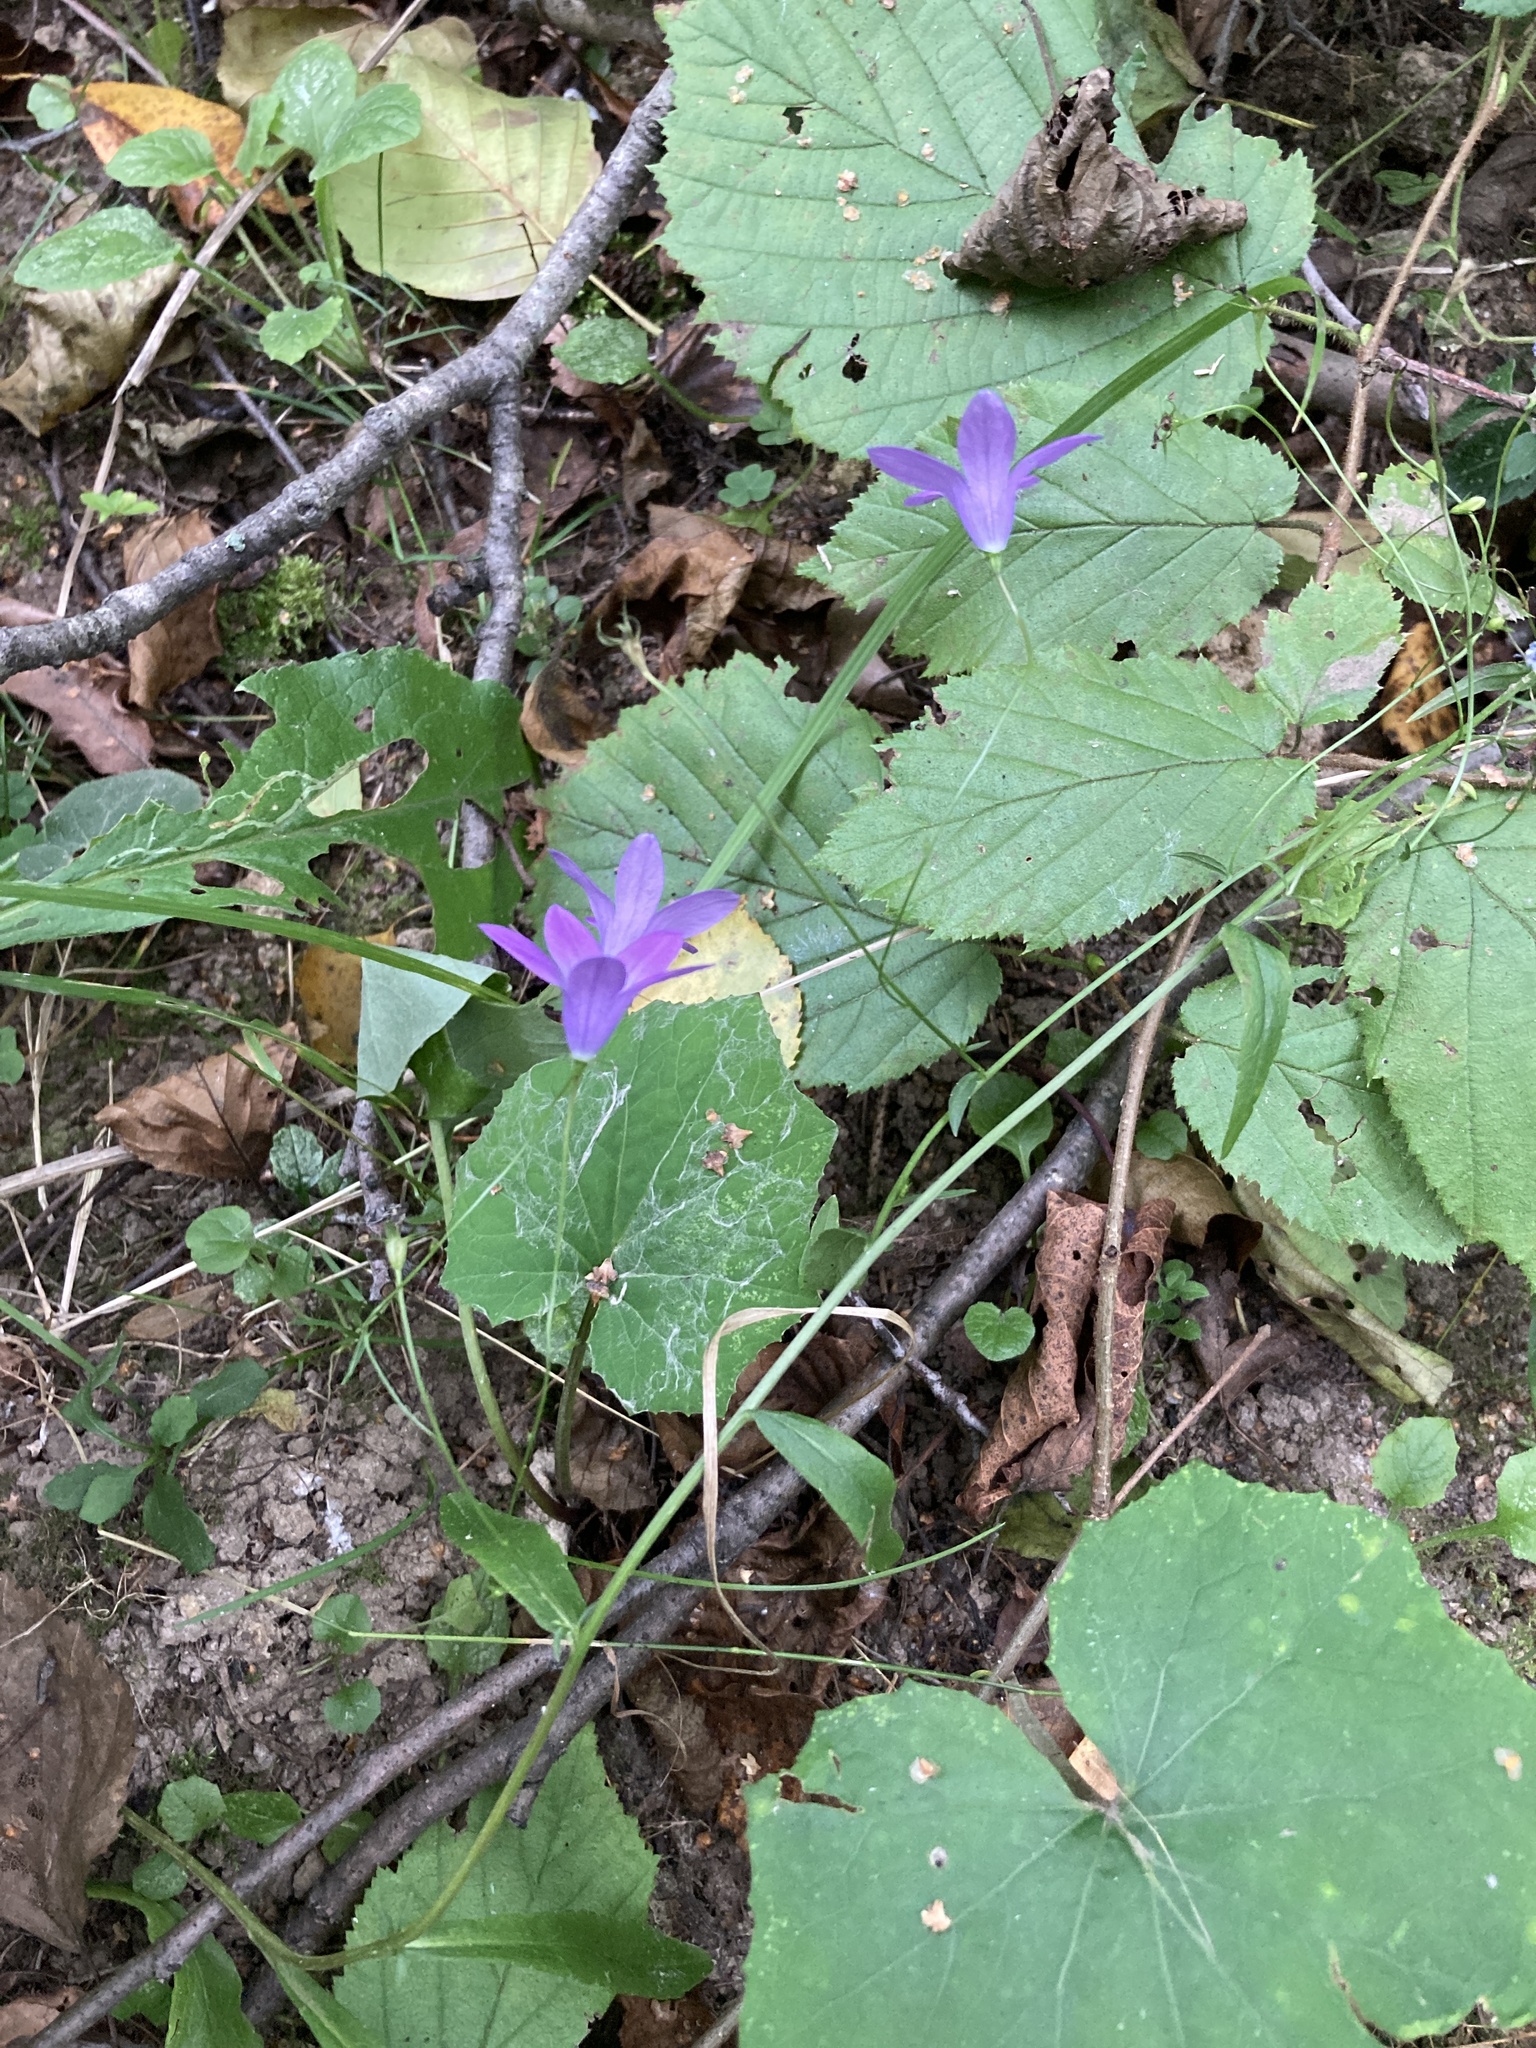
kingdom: Plantae
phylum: Tracheophyta
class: Magnoliopsida
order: Asterales
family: Campanulaceae
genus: Campanula
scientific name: Campanula patula
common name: Spreading bellflower
